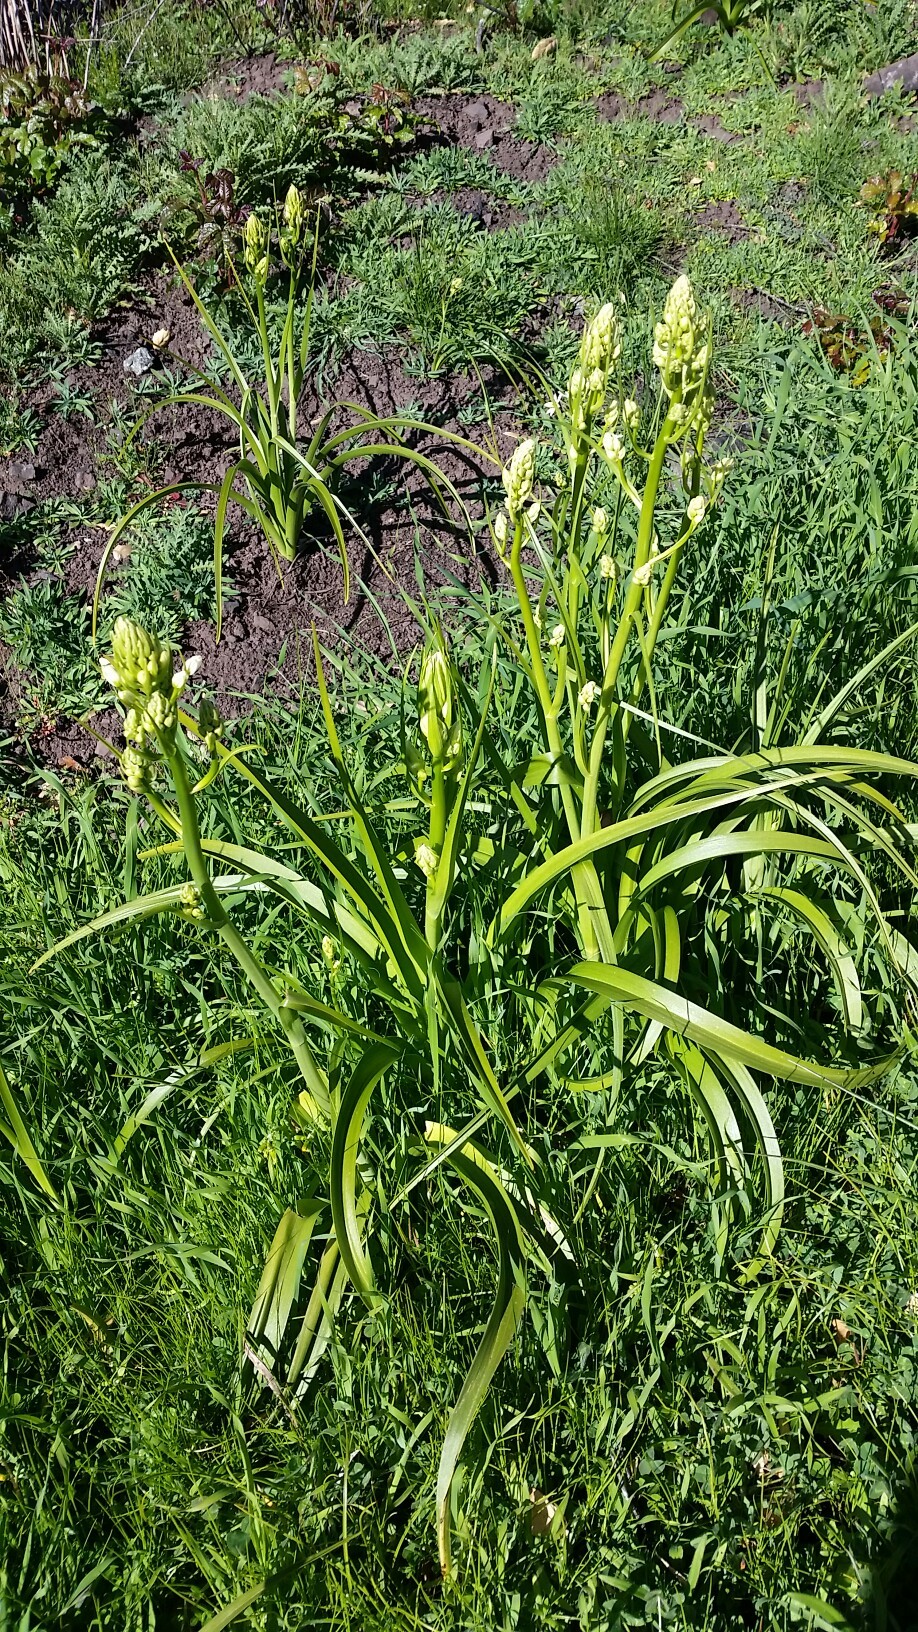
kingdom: Plantae
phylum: Tracheophyta
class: Liliopsida
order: Liliales
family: Melanthiaceae
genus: Toxicoscordion
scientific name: Toxicoscordion fremontii
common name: Fremont's death camas
